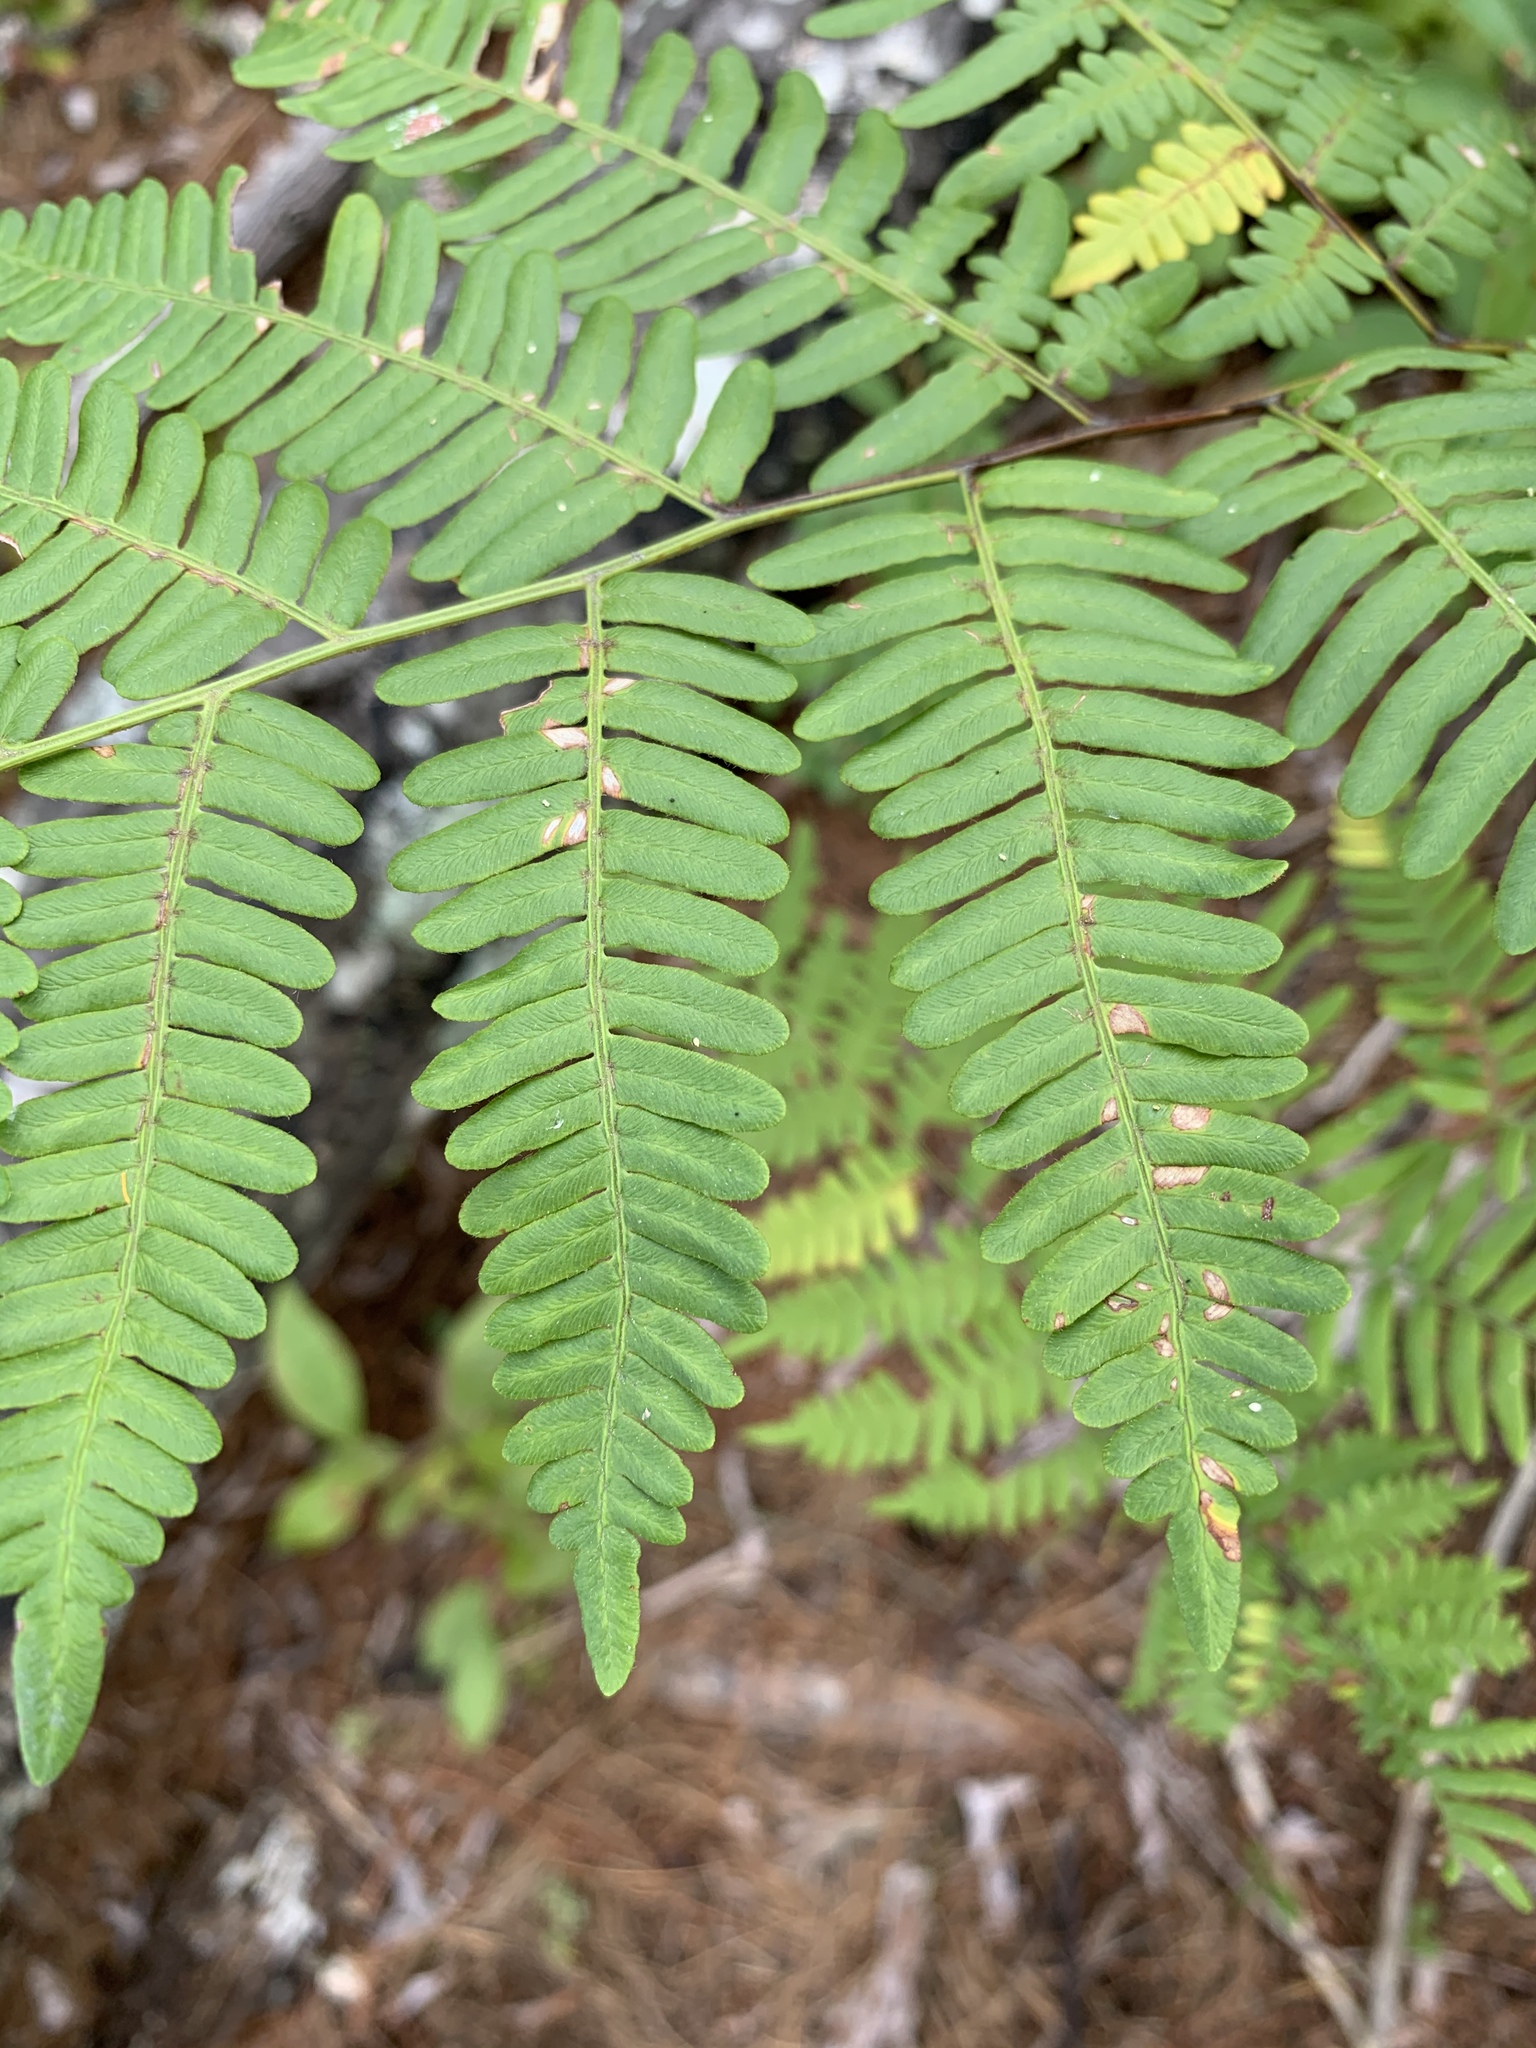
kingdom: Plantae
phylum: Tracheophyta
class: Polypodiopsida
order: Polypodiales
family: Dennstaedtiaceae
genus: Pteridium
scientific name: Pteridium aquilinum
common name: Bracken
